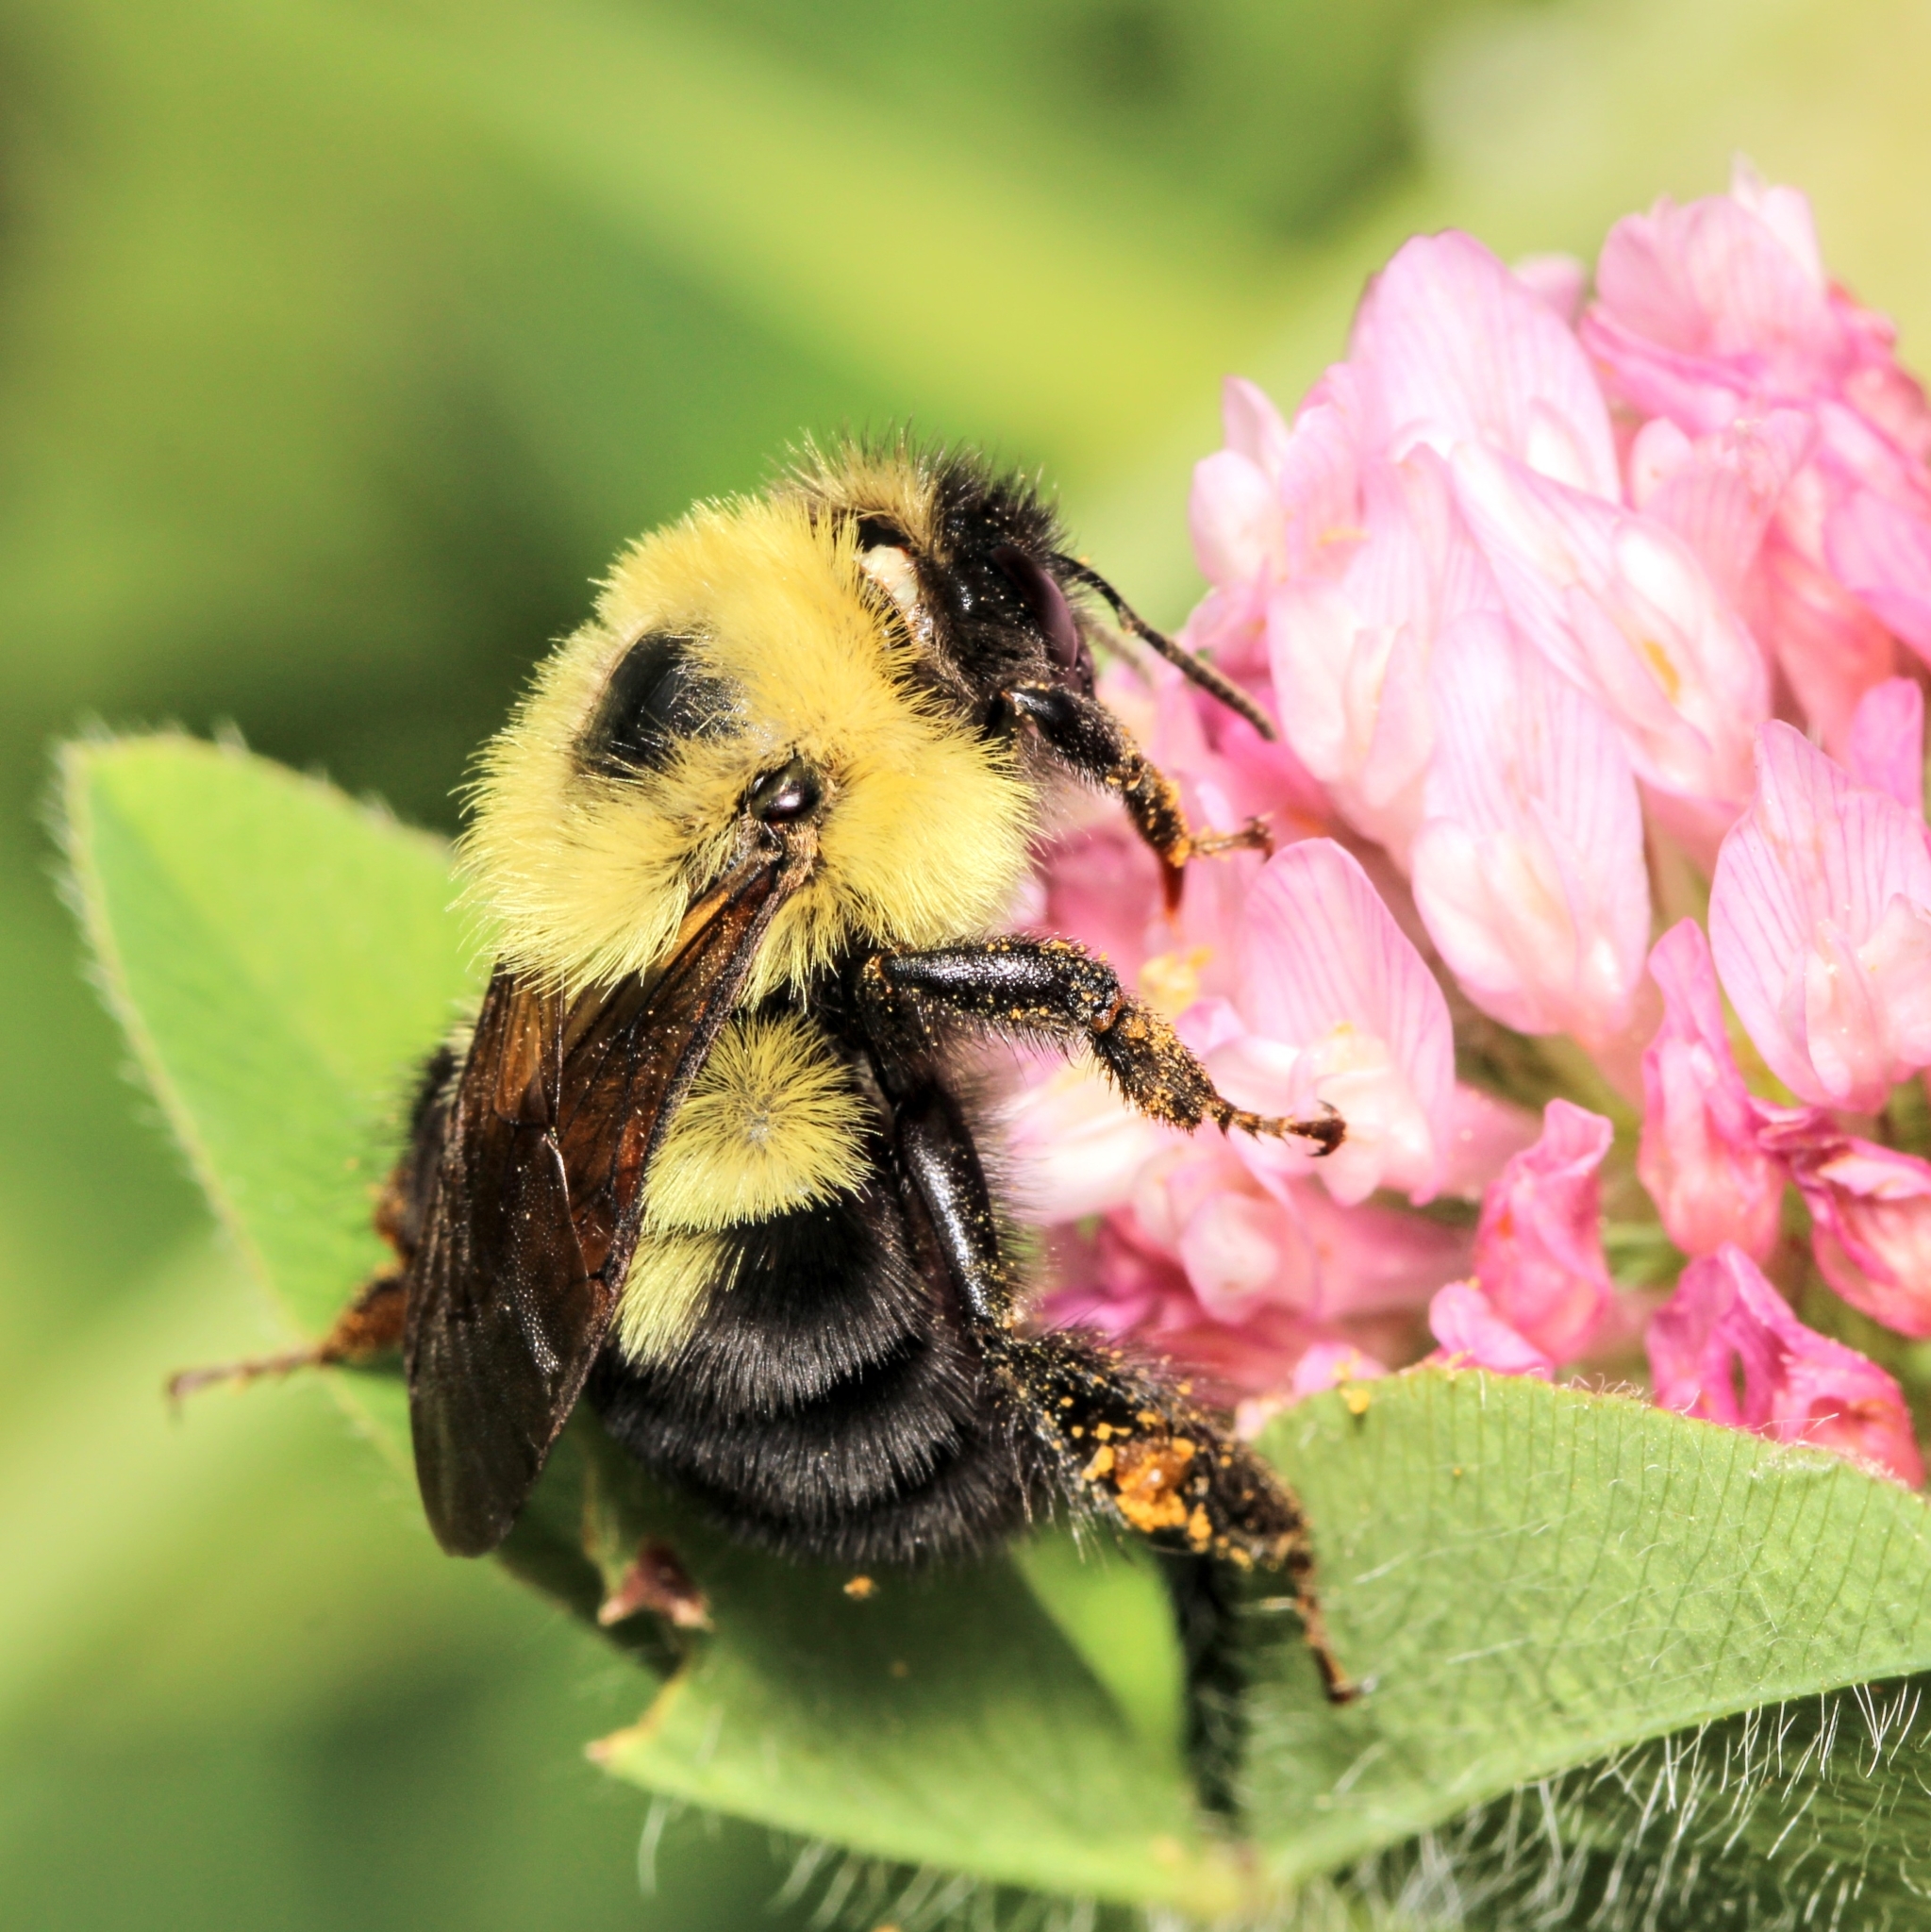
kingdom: Animalia
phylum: Arthropoda
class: Insecta
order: Hymenoptera
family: Apidae
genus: Bombus
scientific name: Bombus bimaculatus
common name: Two-spotted bumble bee
